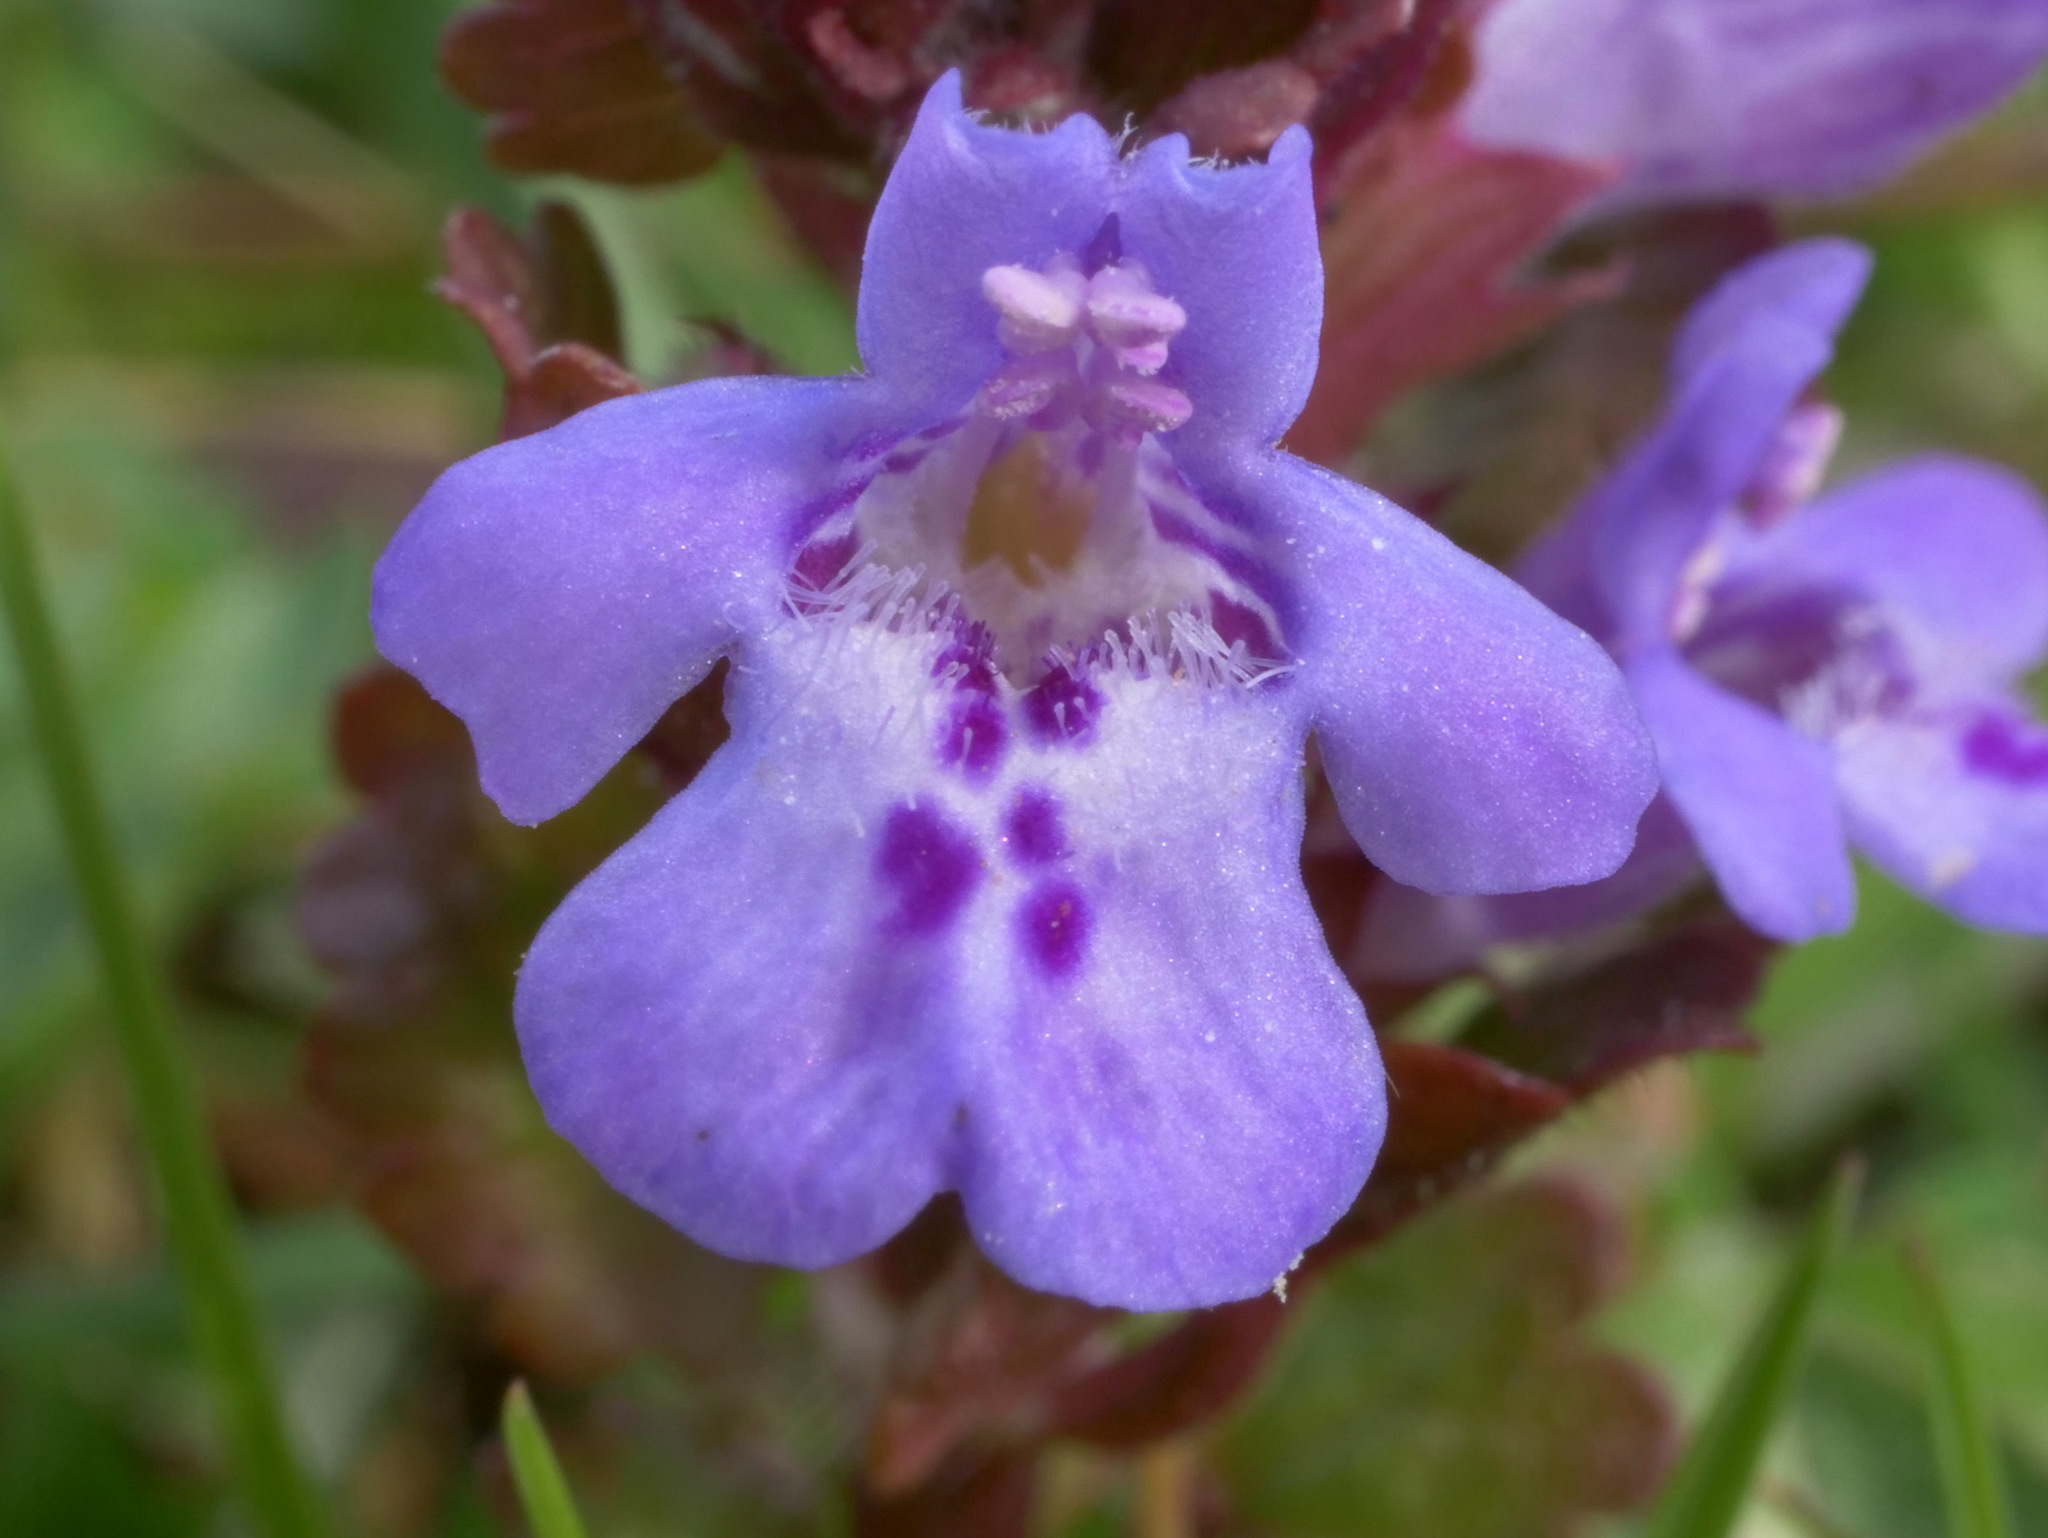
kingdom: Plantae
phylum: Tracheophyta
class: Magnoliopsida
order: Lamiales
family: Lamiaceae
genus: Glechoma
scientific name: Glechoma hederacea
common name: Ground ivy
